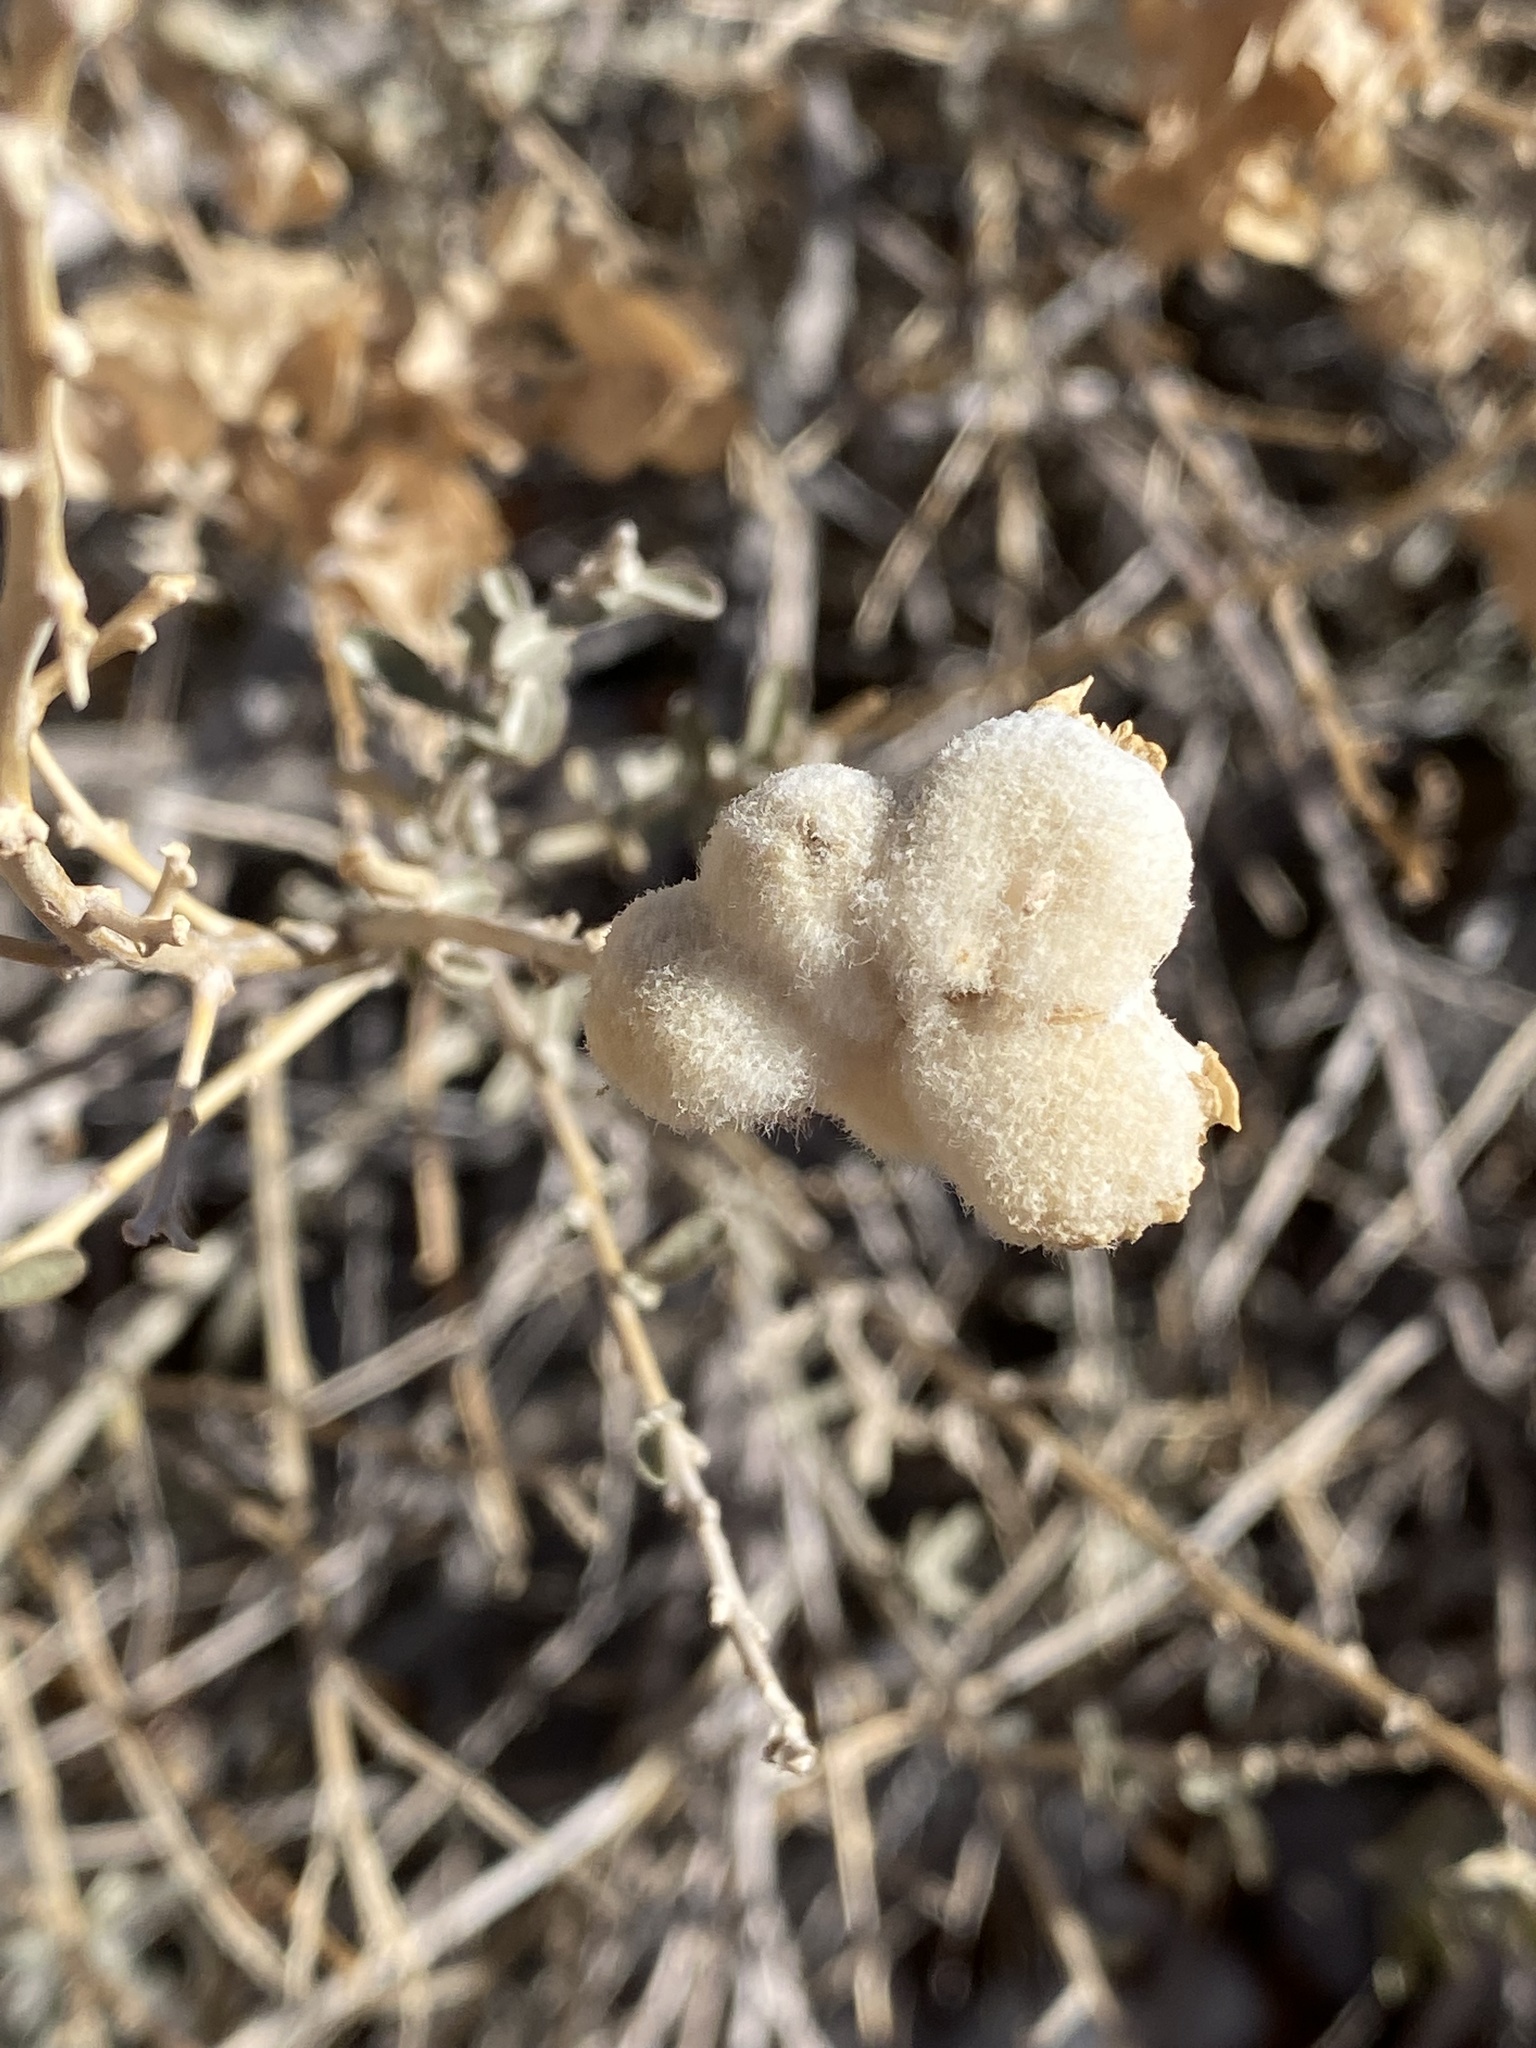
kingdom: Animalia
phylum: Arthropoda
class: Insecta
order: Diptera
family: Cecidomyiidae
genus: Asphondylia
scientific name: Asphondylia neomexicana
